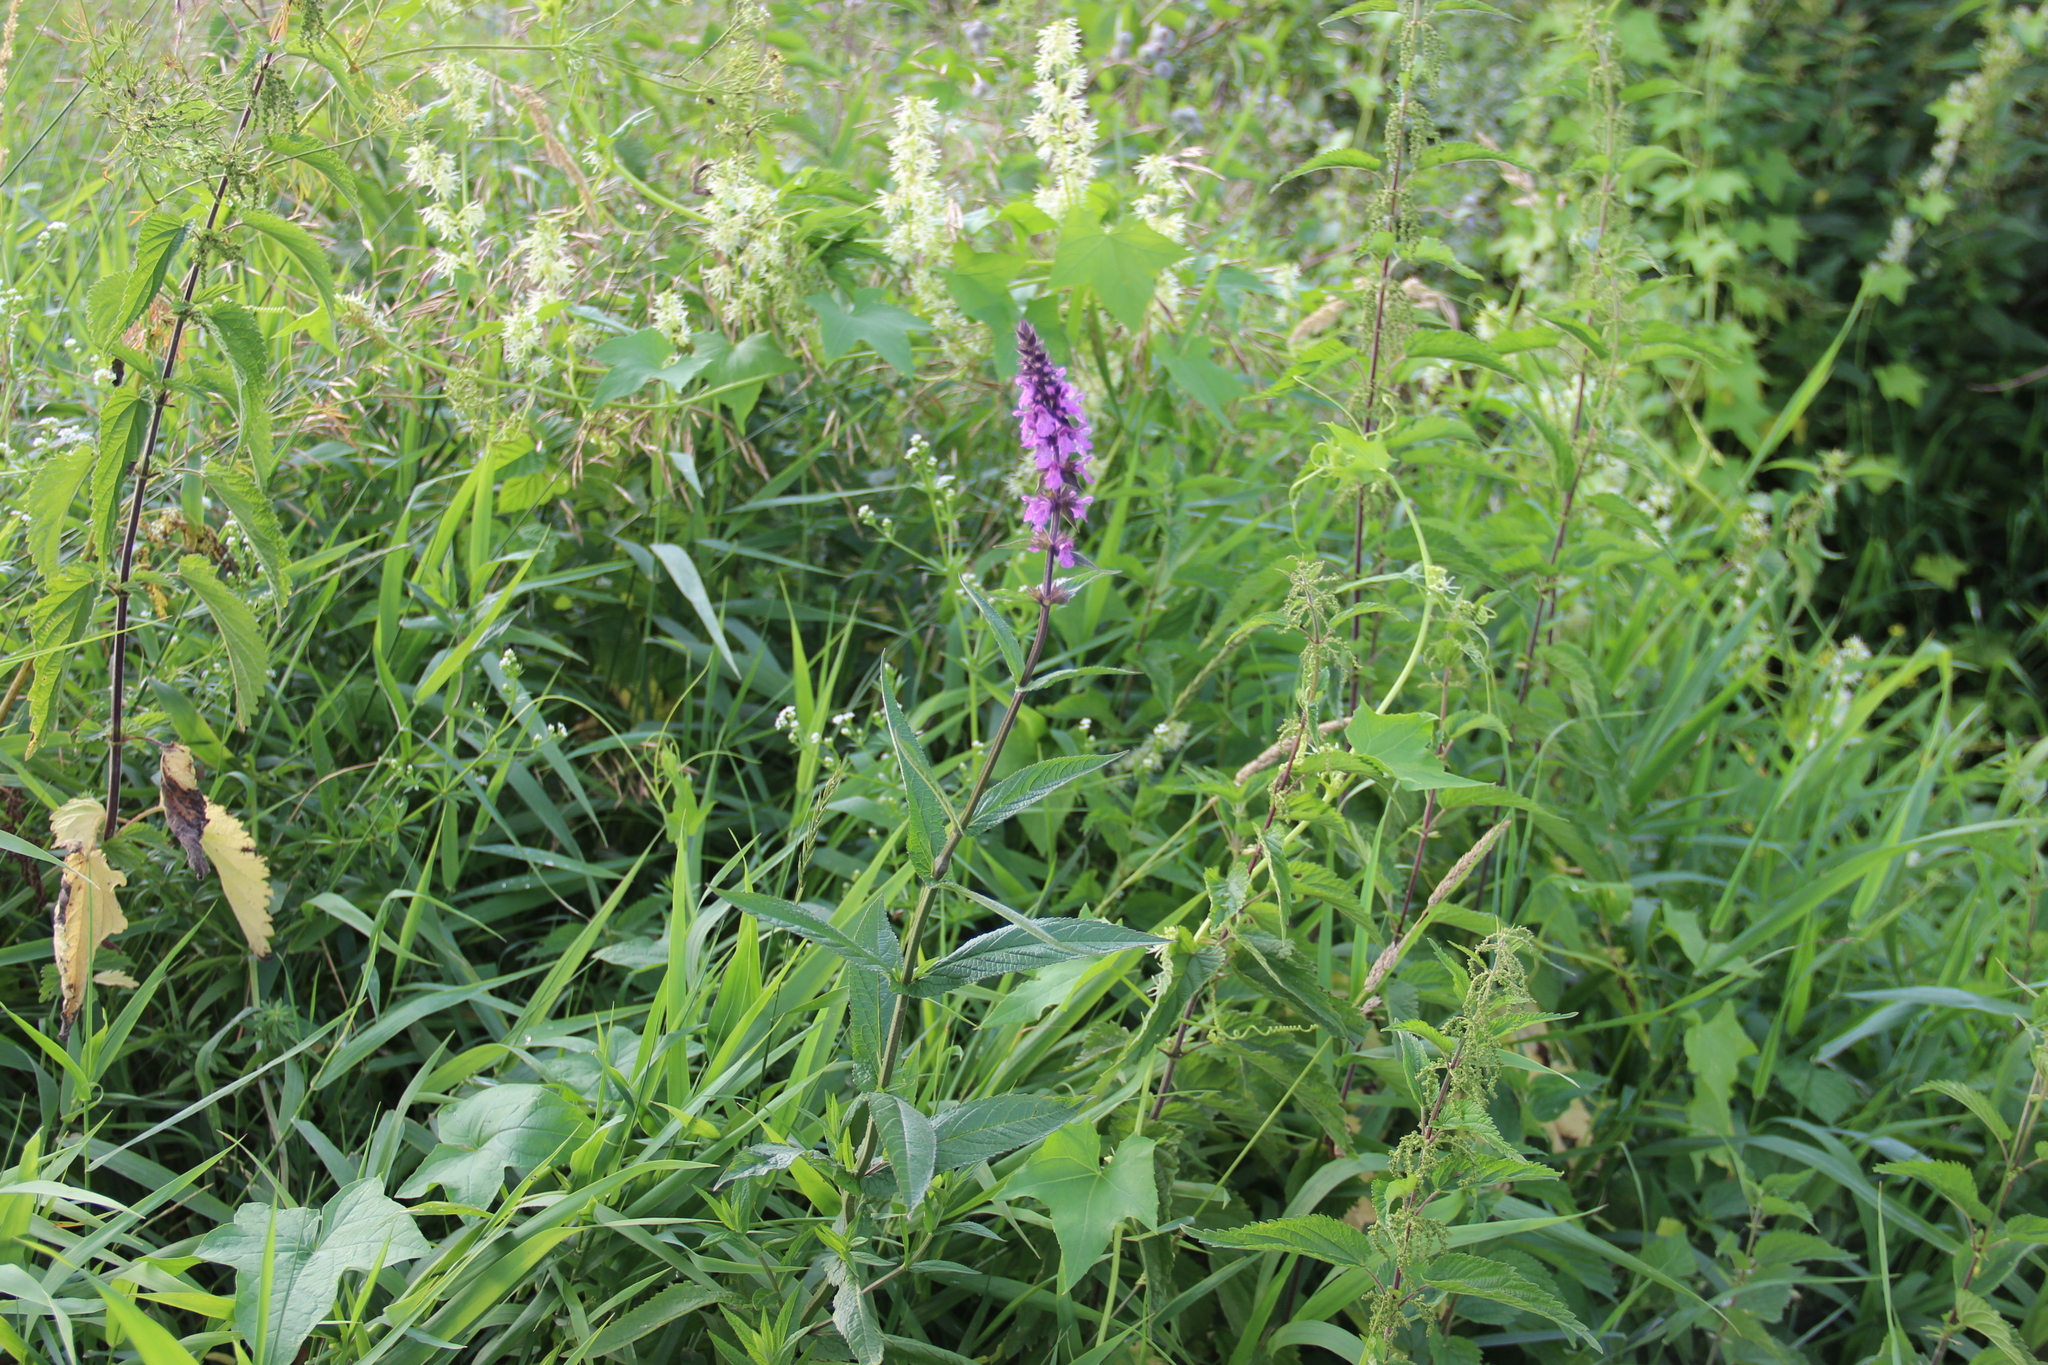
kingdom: Plantae
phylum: Tracheophyta
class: Magnoliopsida
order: Lamiales
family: Lamiaceae
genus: Stachys
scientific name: Stachys palustris
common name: Marsh woundwort
